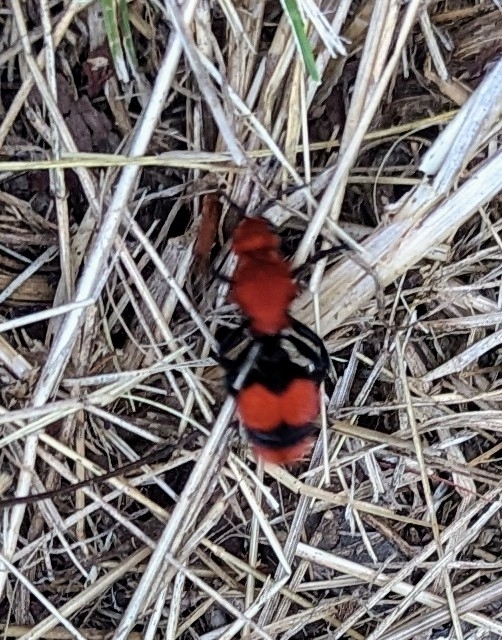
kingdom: Animalia
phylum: Arthropoda
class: Insecta
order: Hymenoptera
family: Mutillidae
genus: Dasymutilla
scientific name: Dasymutilla occidentalis
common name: Common eastern velvet ant
